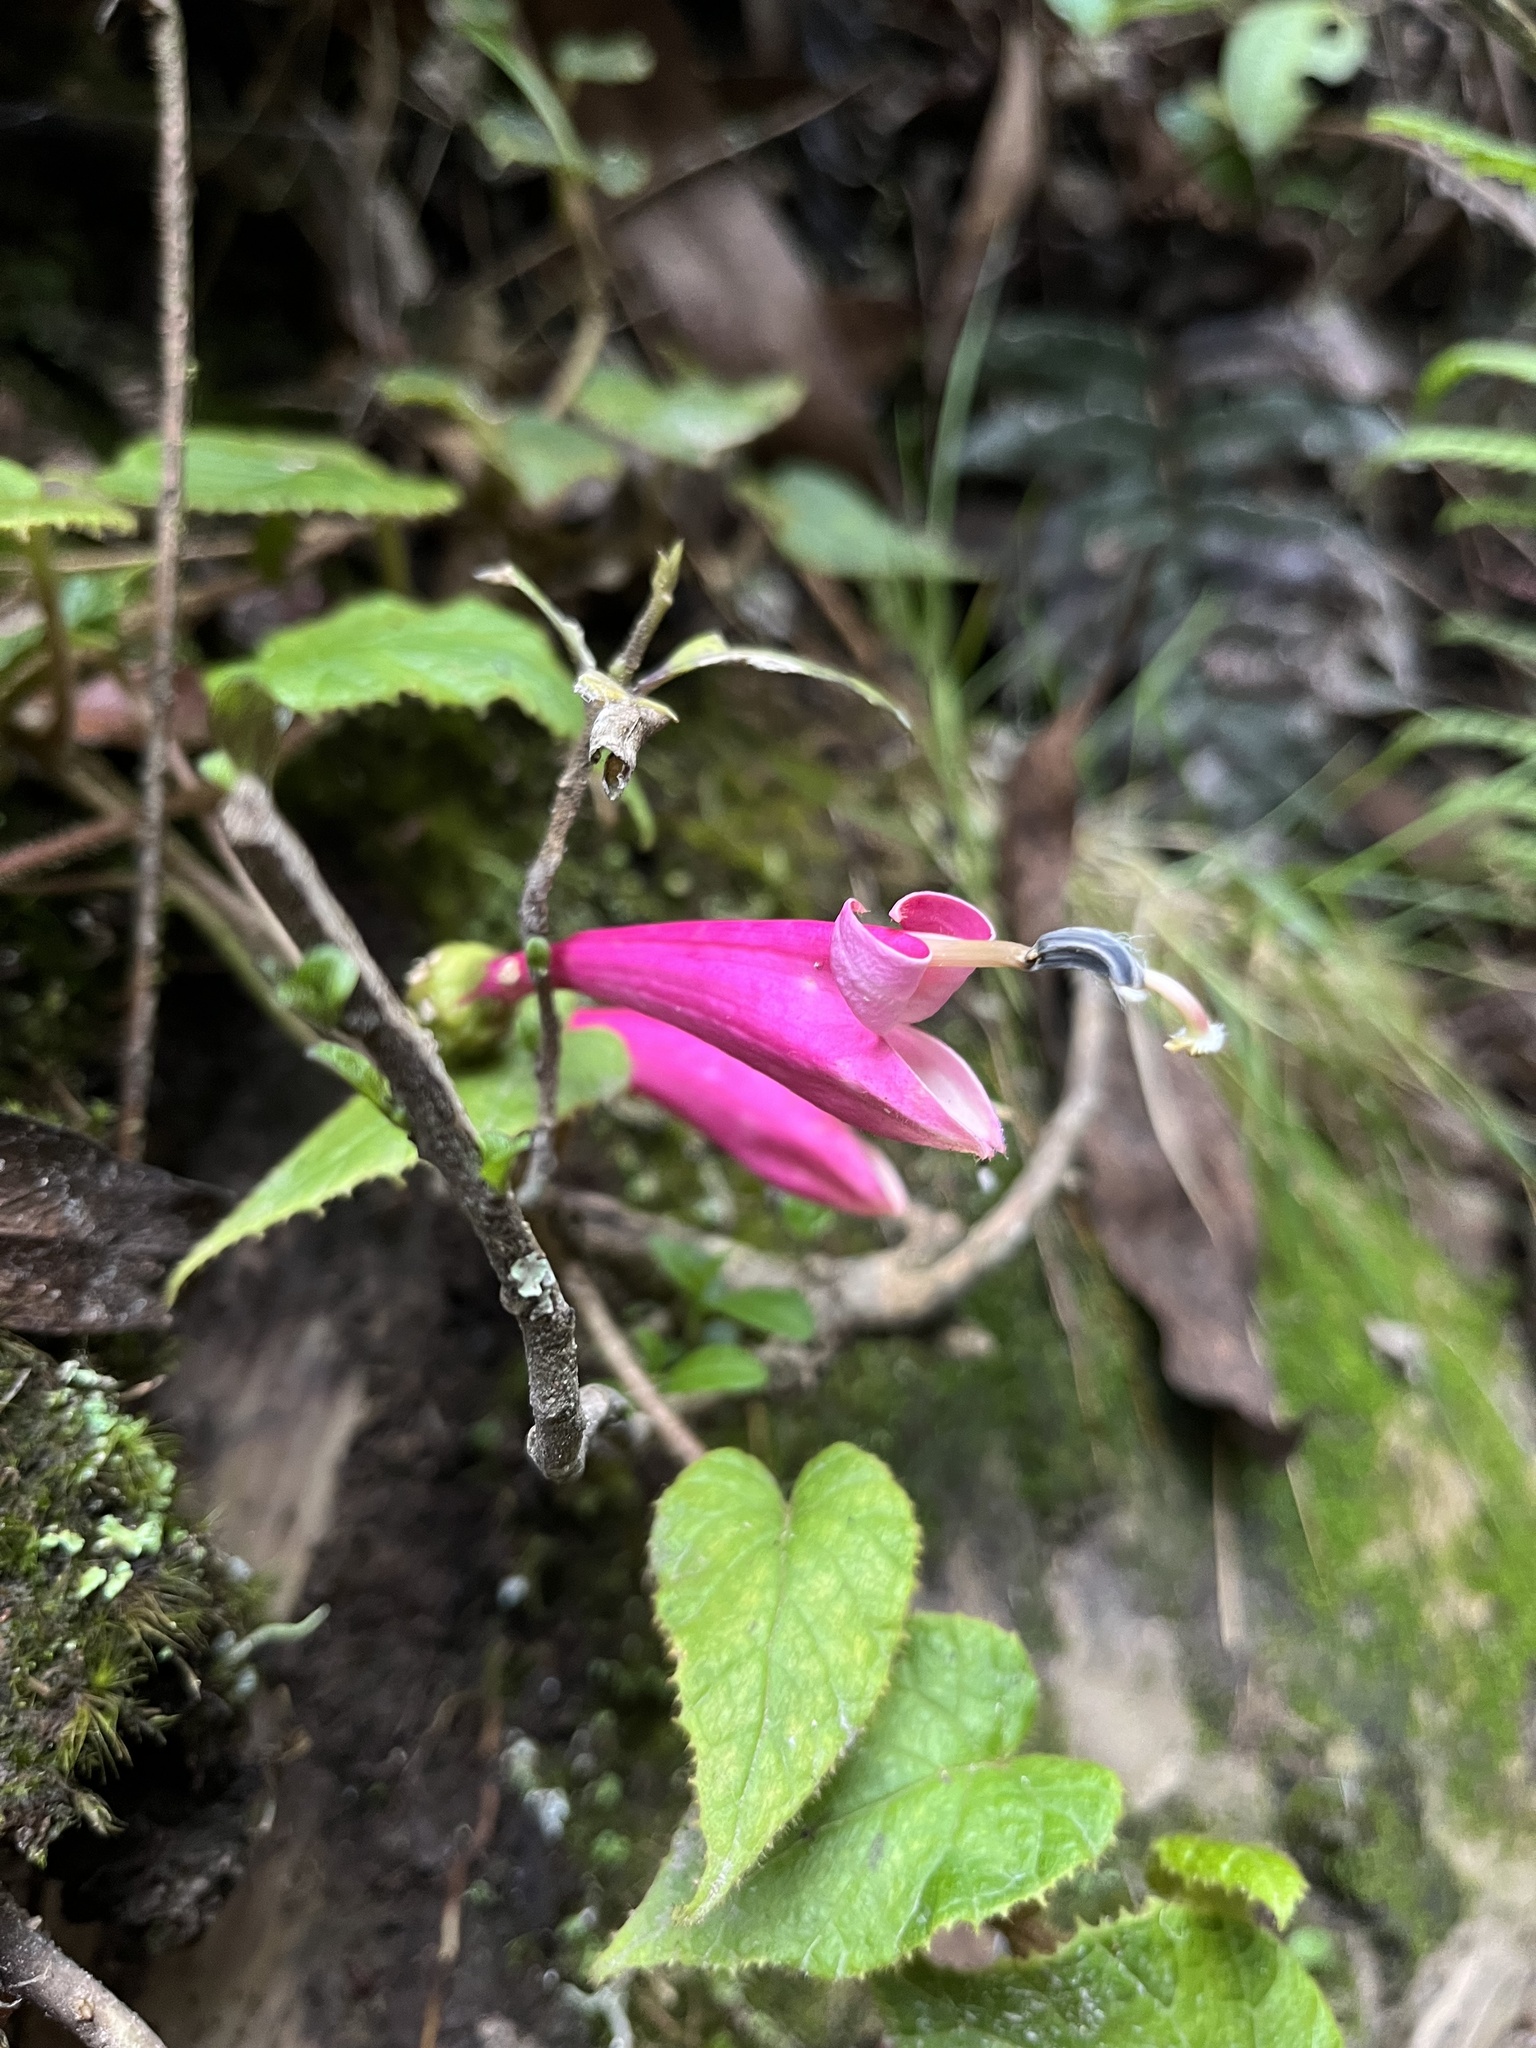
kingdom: Plantae
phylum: Tracheophyta
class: Magnoliopsida
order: Asterales
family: Campanulaceae
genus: Siphocampylus
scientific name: Siphocampylus benthamianus
